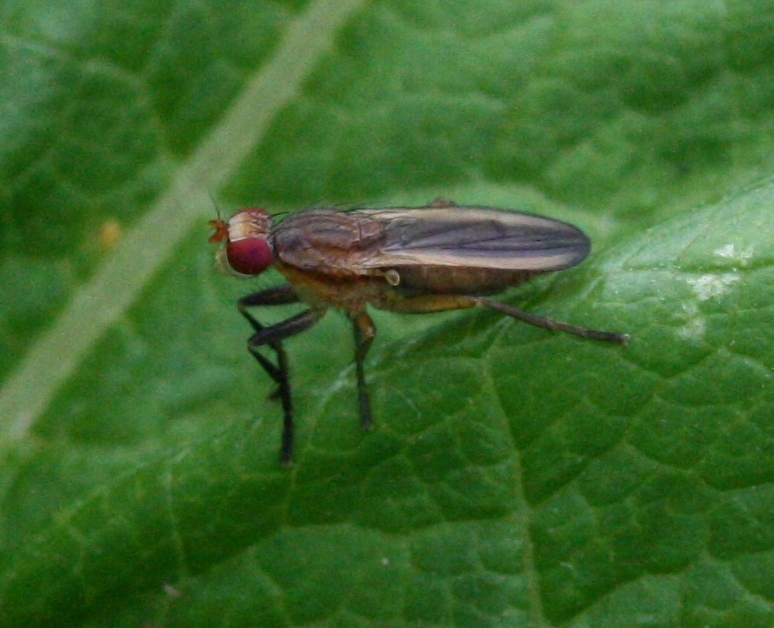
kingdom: Animalia
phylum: Arthropoda
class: Insecta
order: Diptera
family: Sciomyzidae
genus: Pherbellia
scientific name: Pherbellia albocostata
